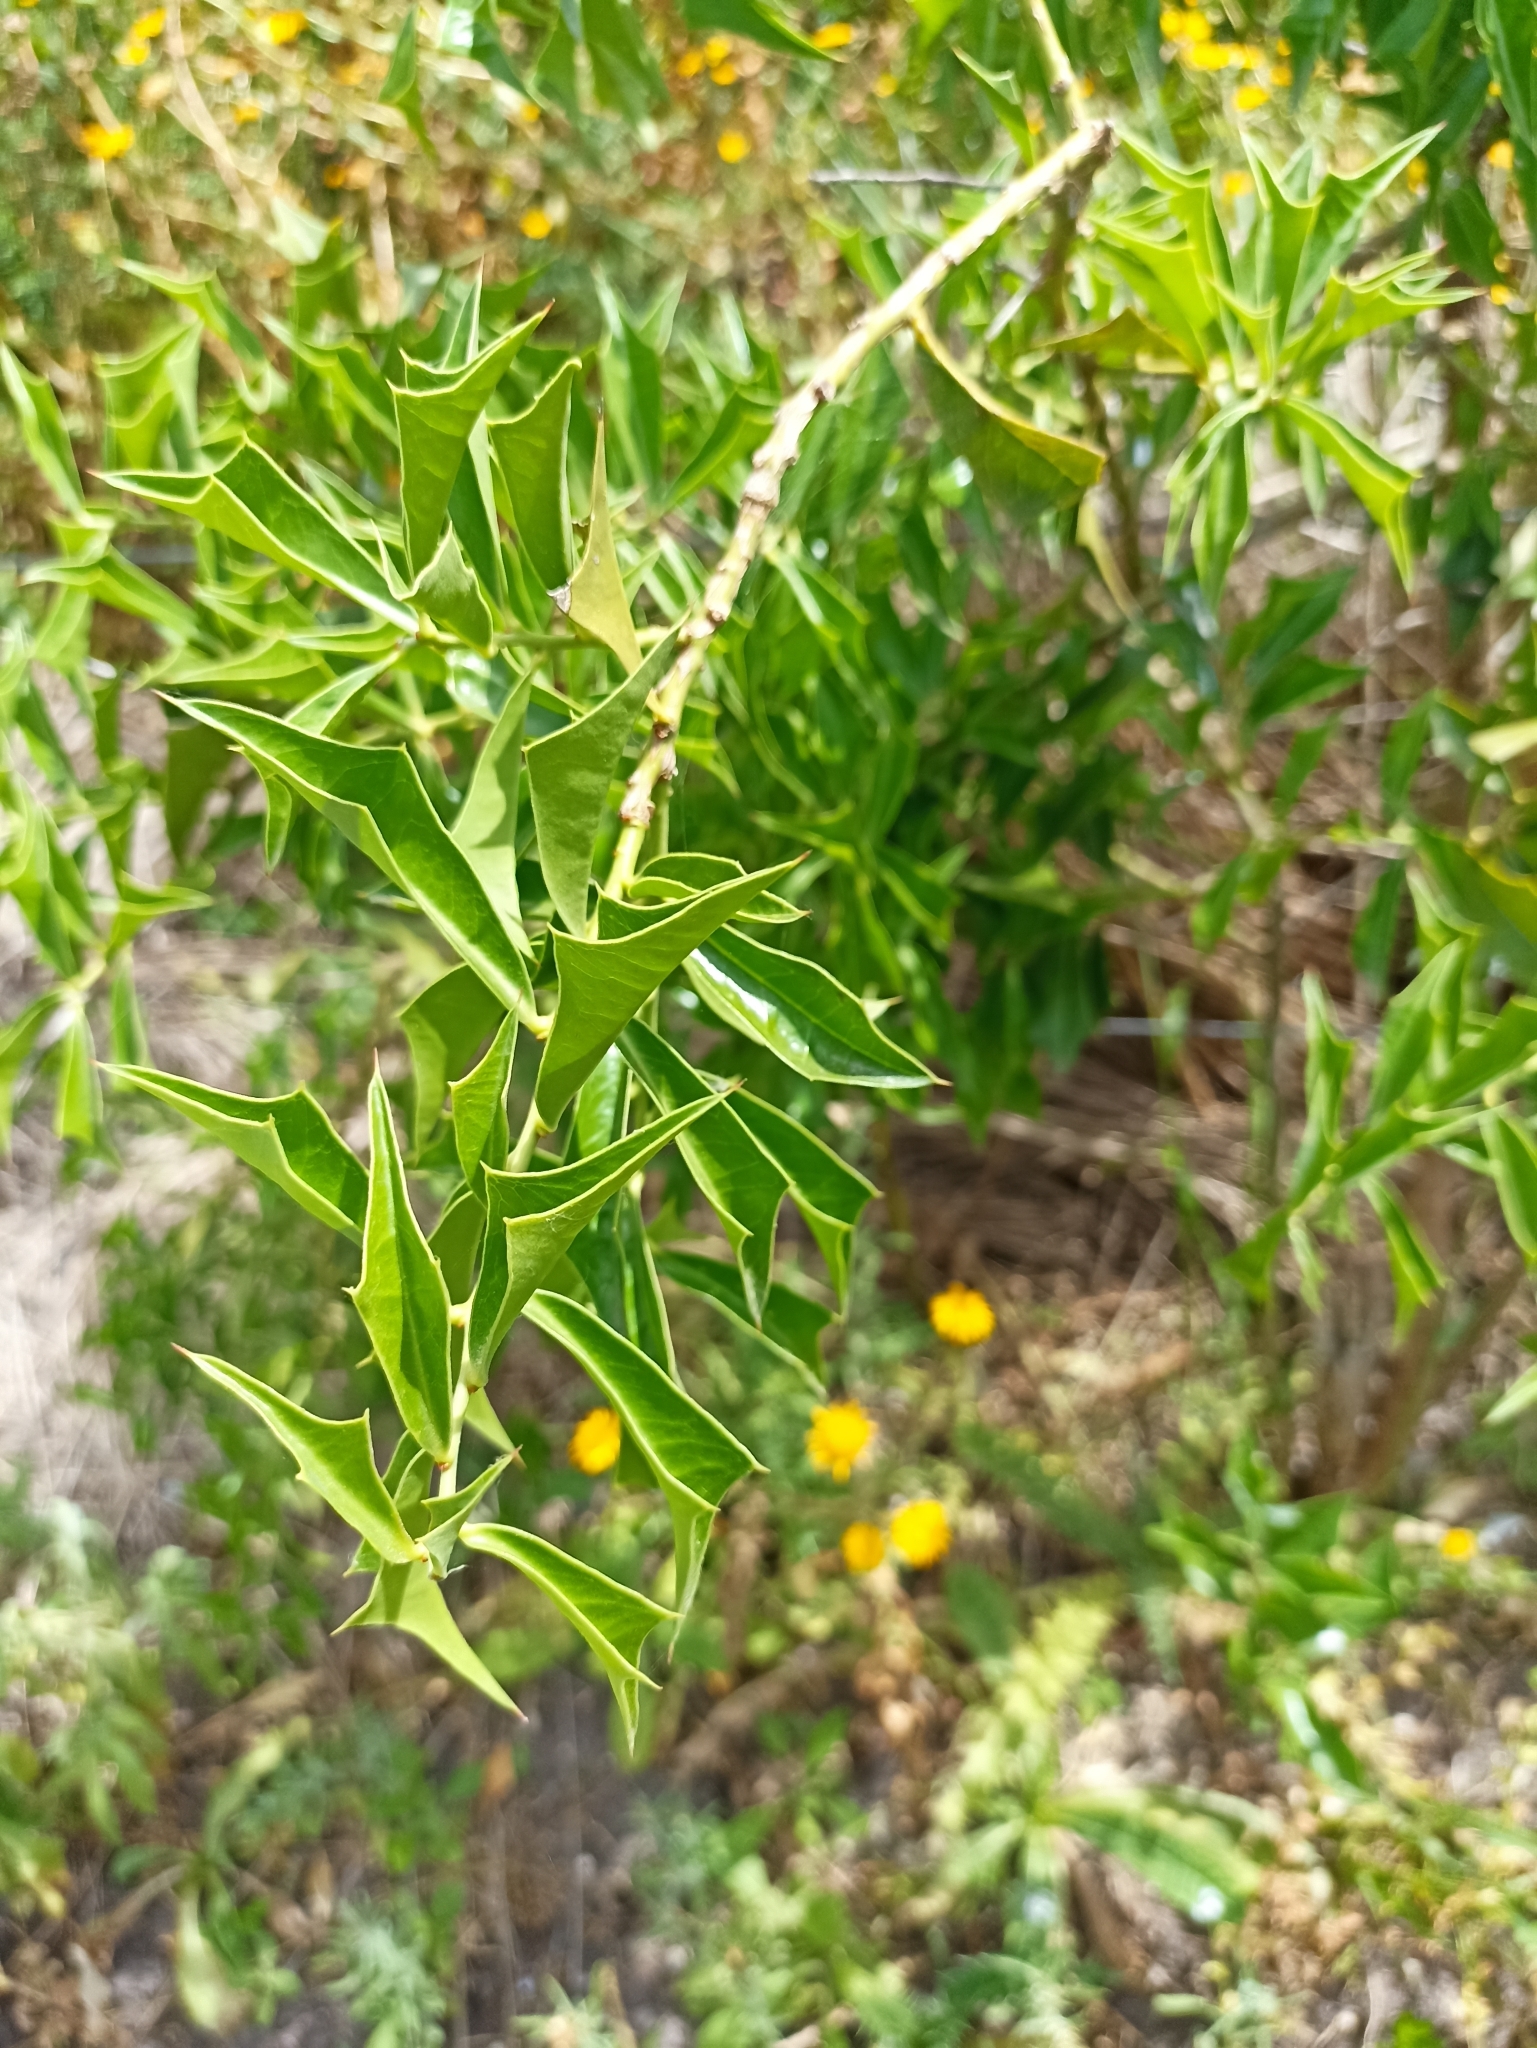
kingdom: Plantae
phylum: Tracheophyta
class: Magnoliopsida
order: Santalales
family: Cervantesiaceae
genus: Jodina
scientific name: Jodina rhombifolia
